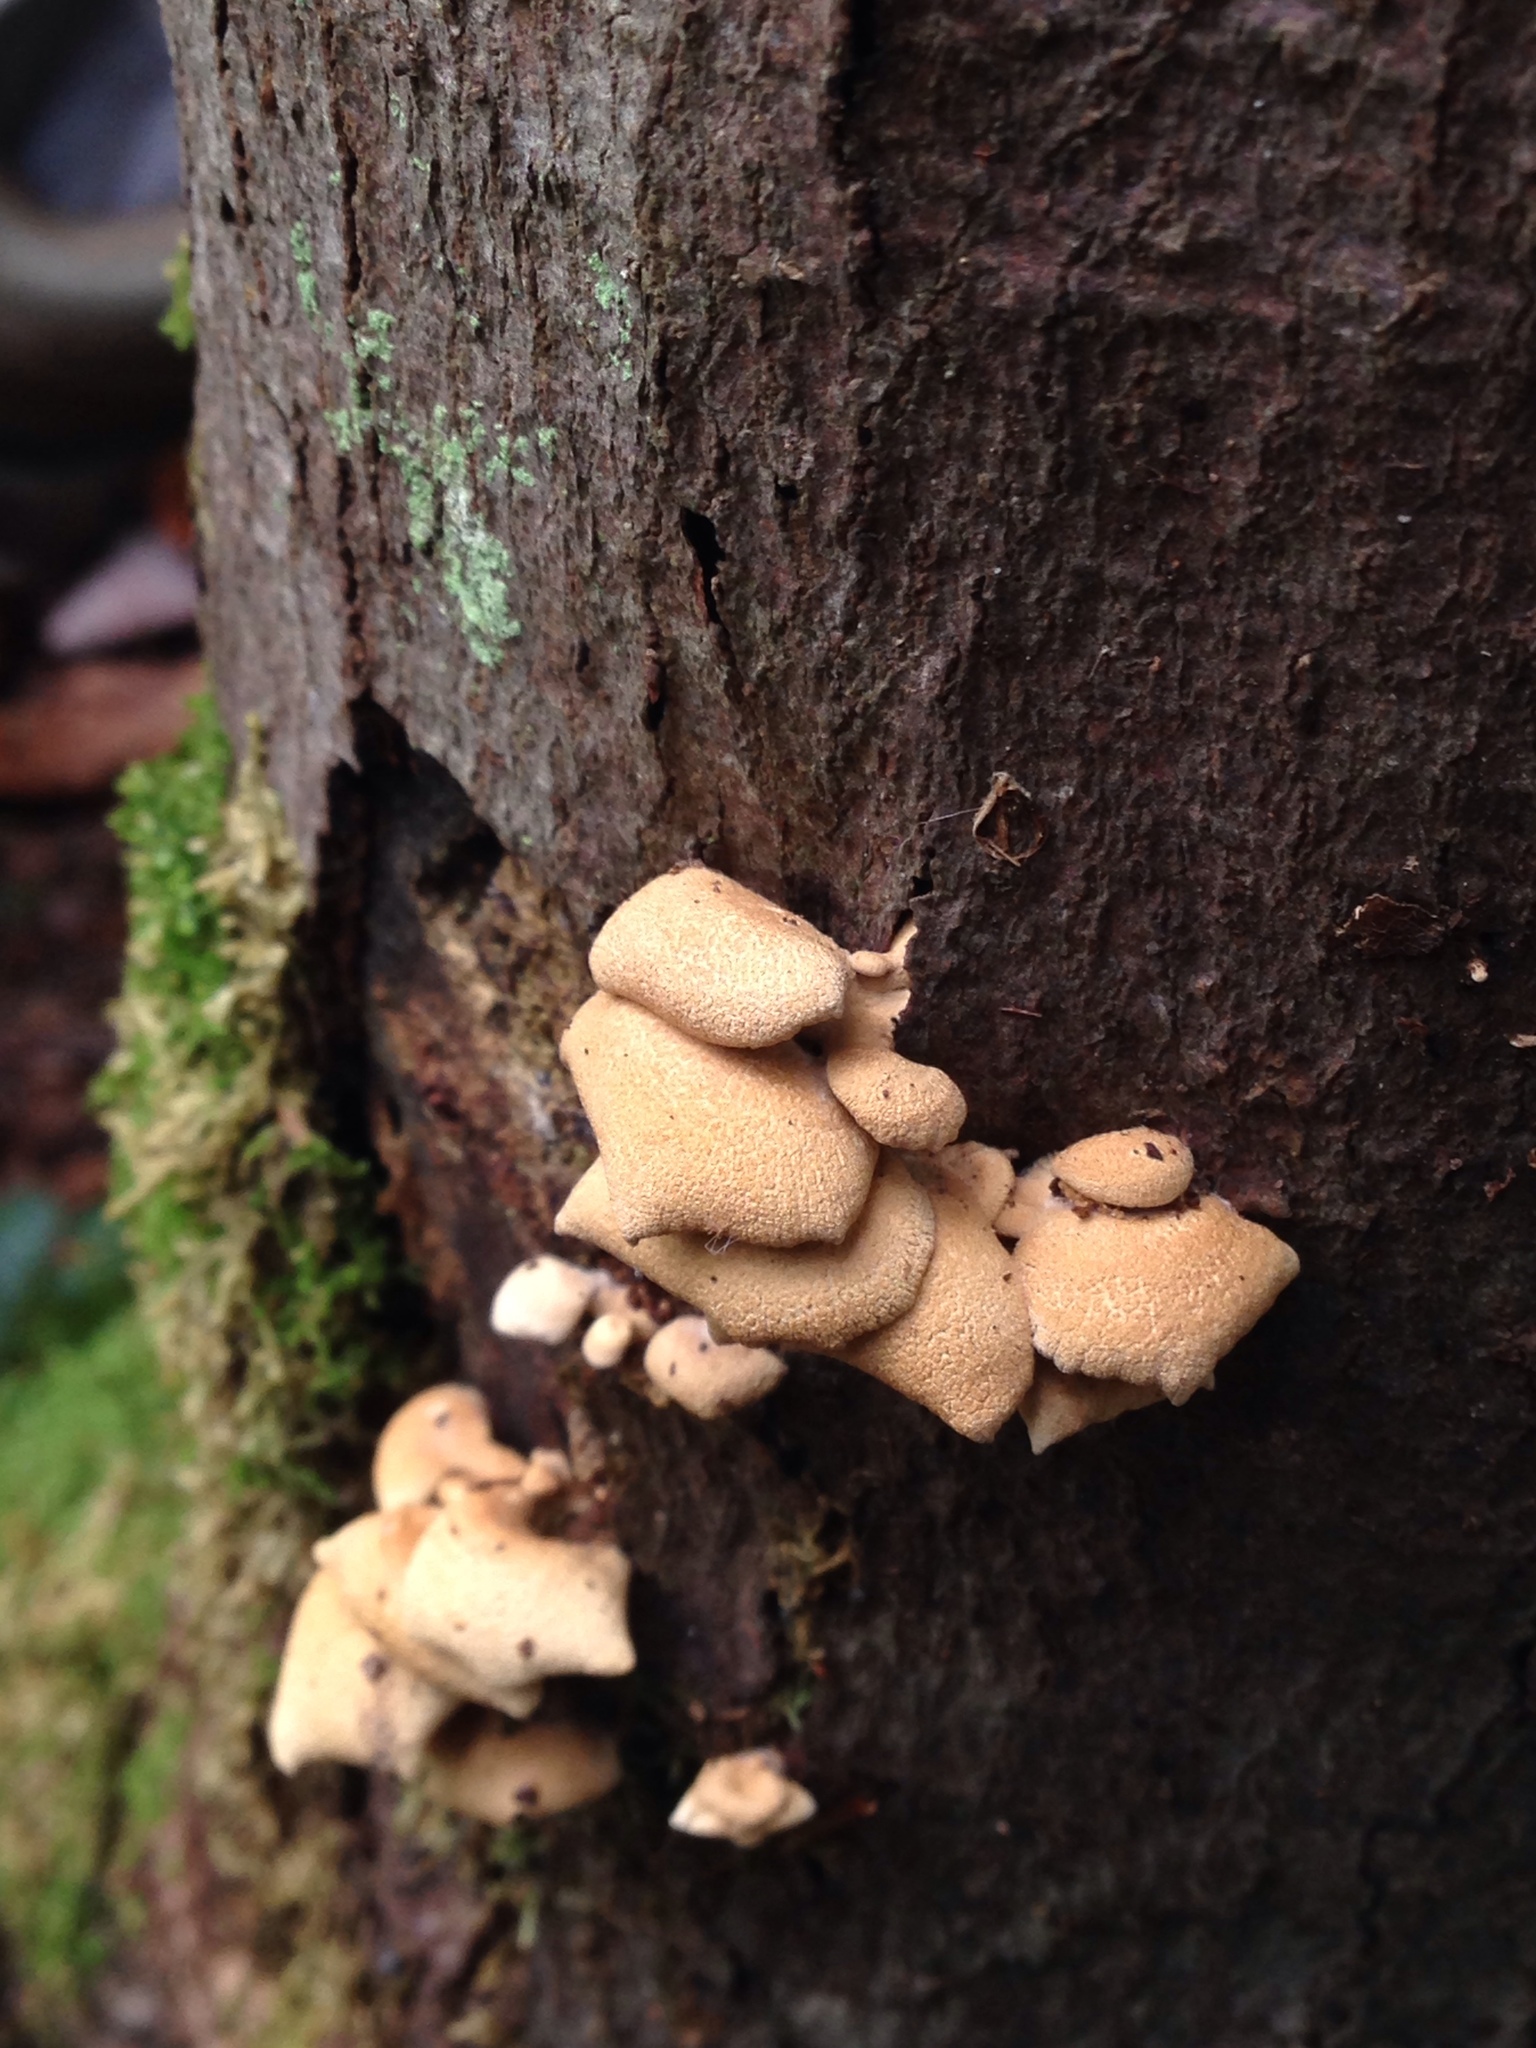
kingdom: Fungi
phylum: Basidiomycota
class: Agaricomycetes
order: Agaricales
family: Mycenaceae
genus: Panellus
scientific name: Panellus stipticus
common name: Bitter oysterling
